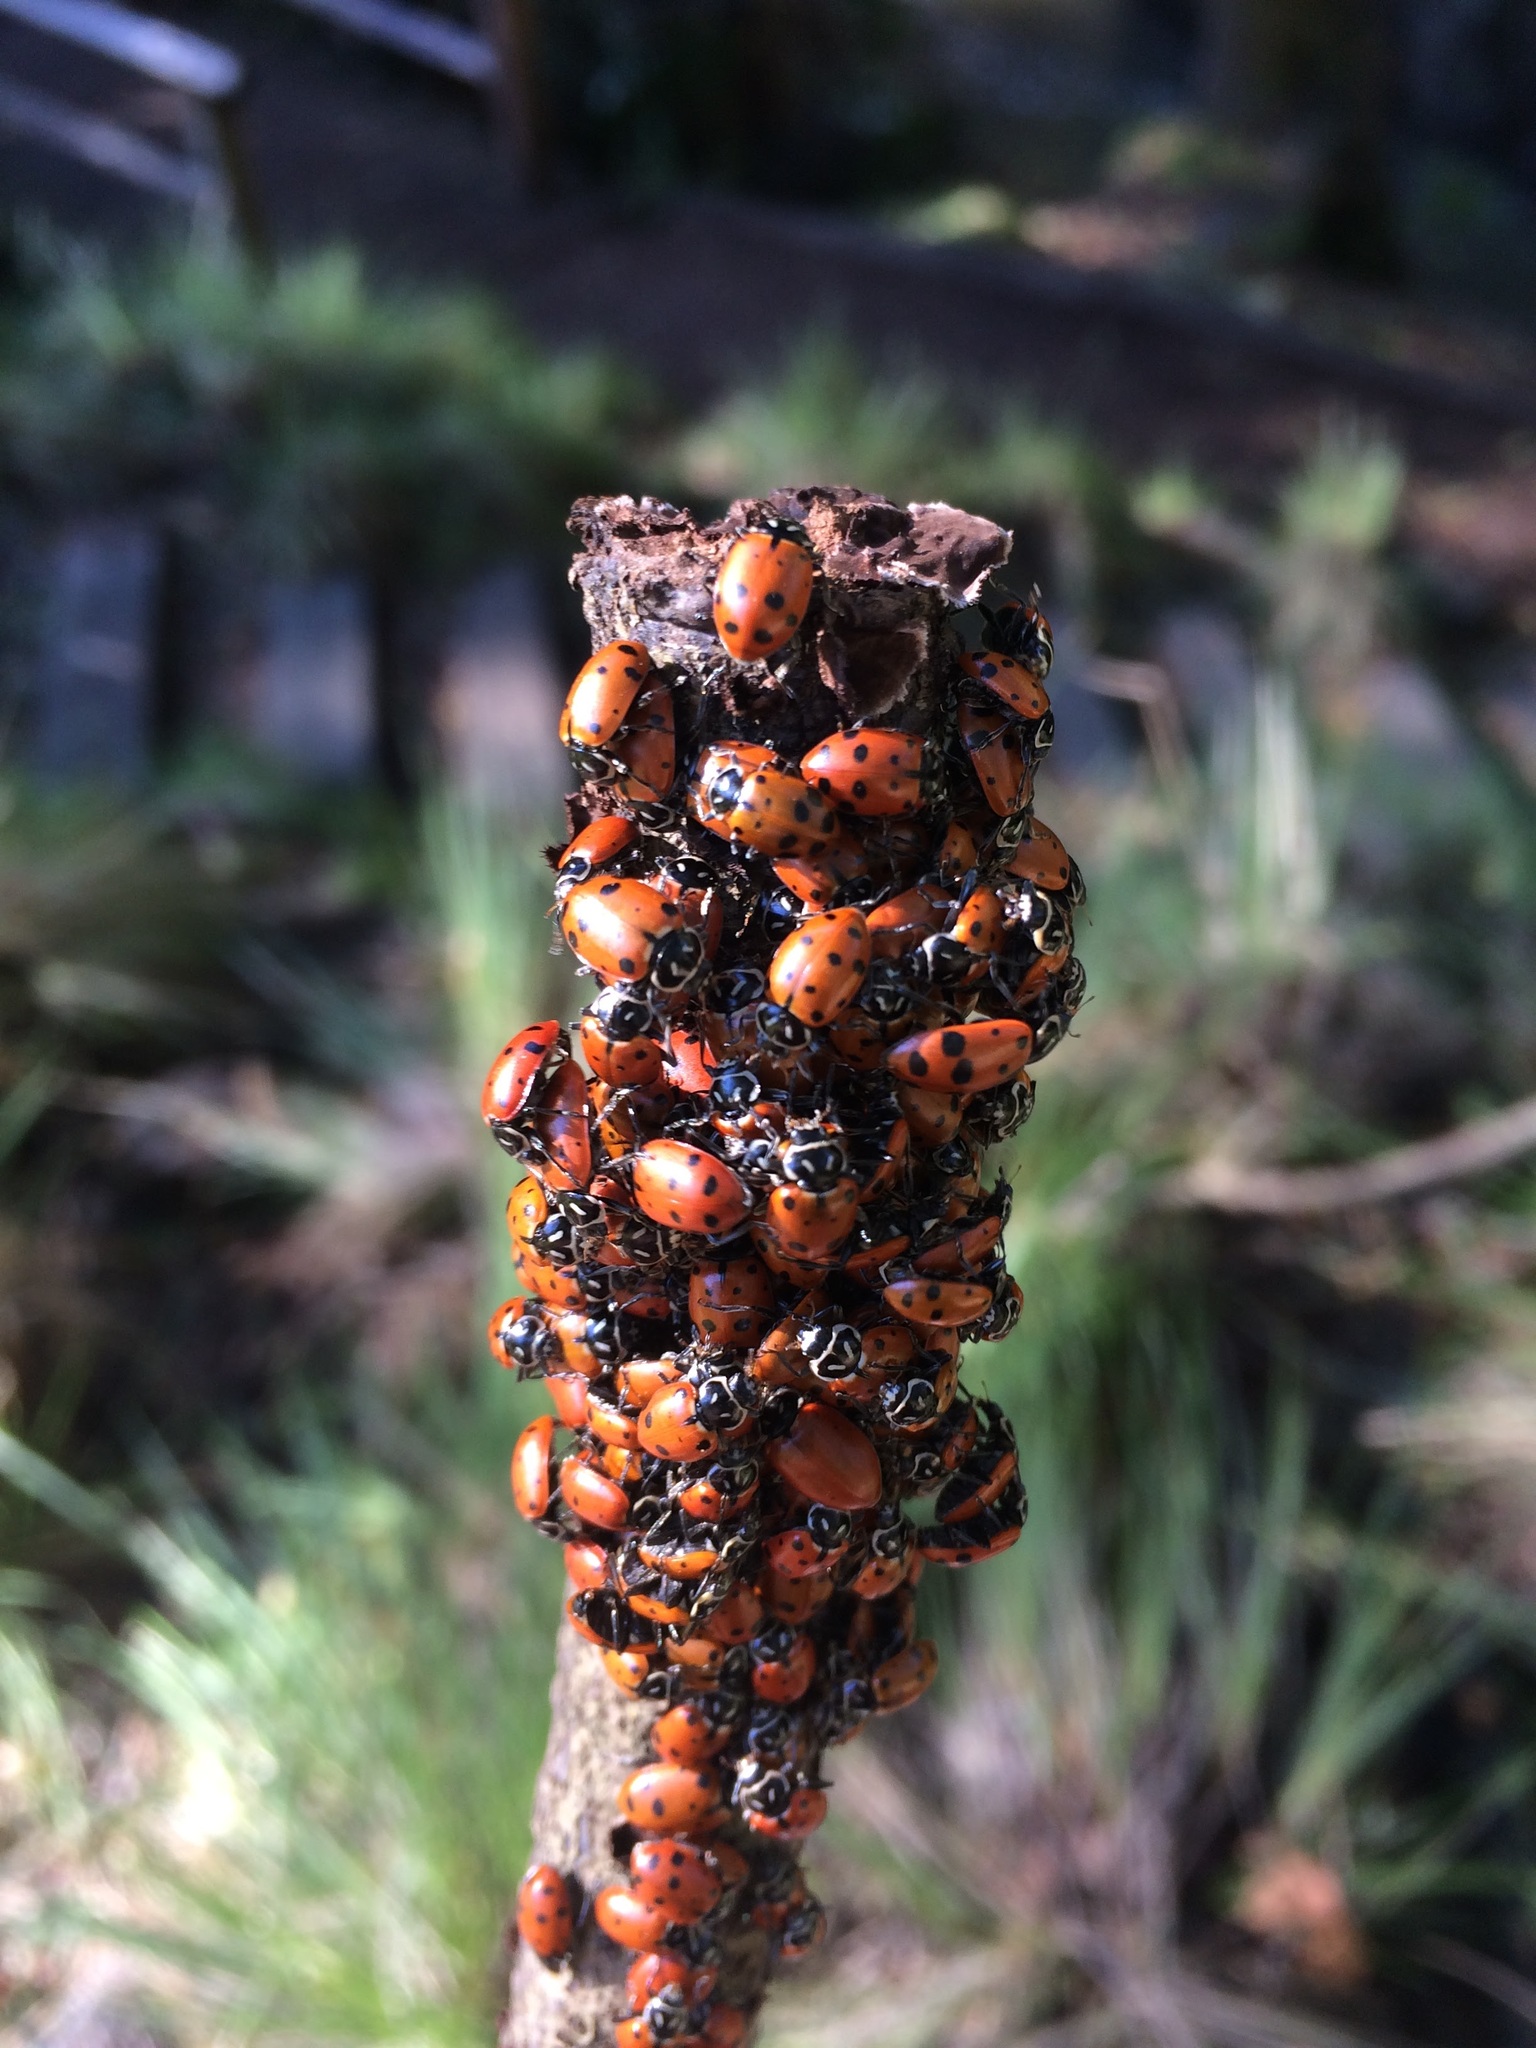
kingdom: Animalia
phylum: Arthropoda
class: Insecta
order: Coleoptera
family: Coccinellidae
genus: Hippodamia
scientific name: Hippodamia convergens
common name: Convergent lady beetle
